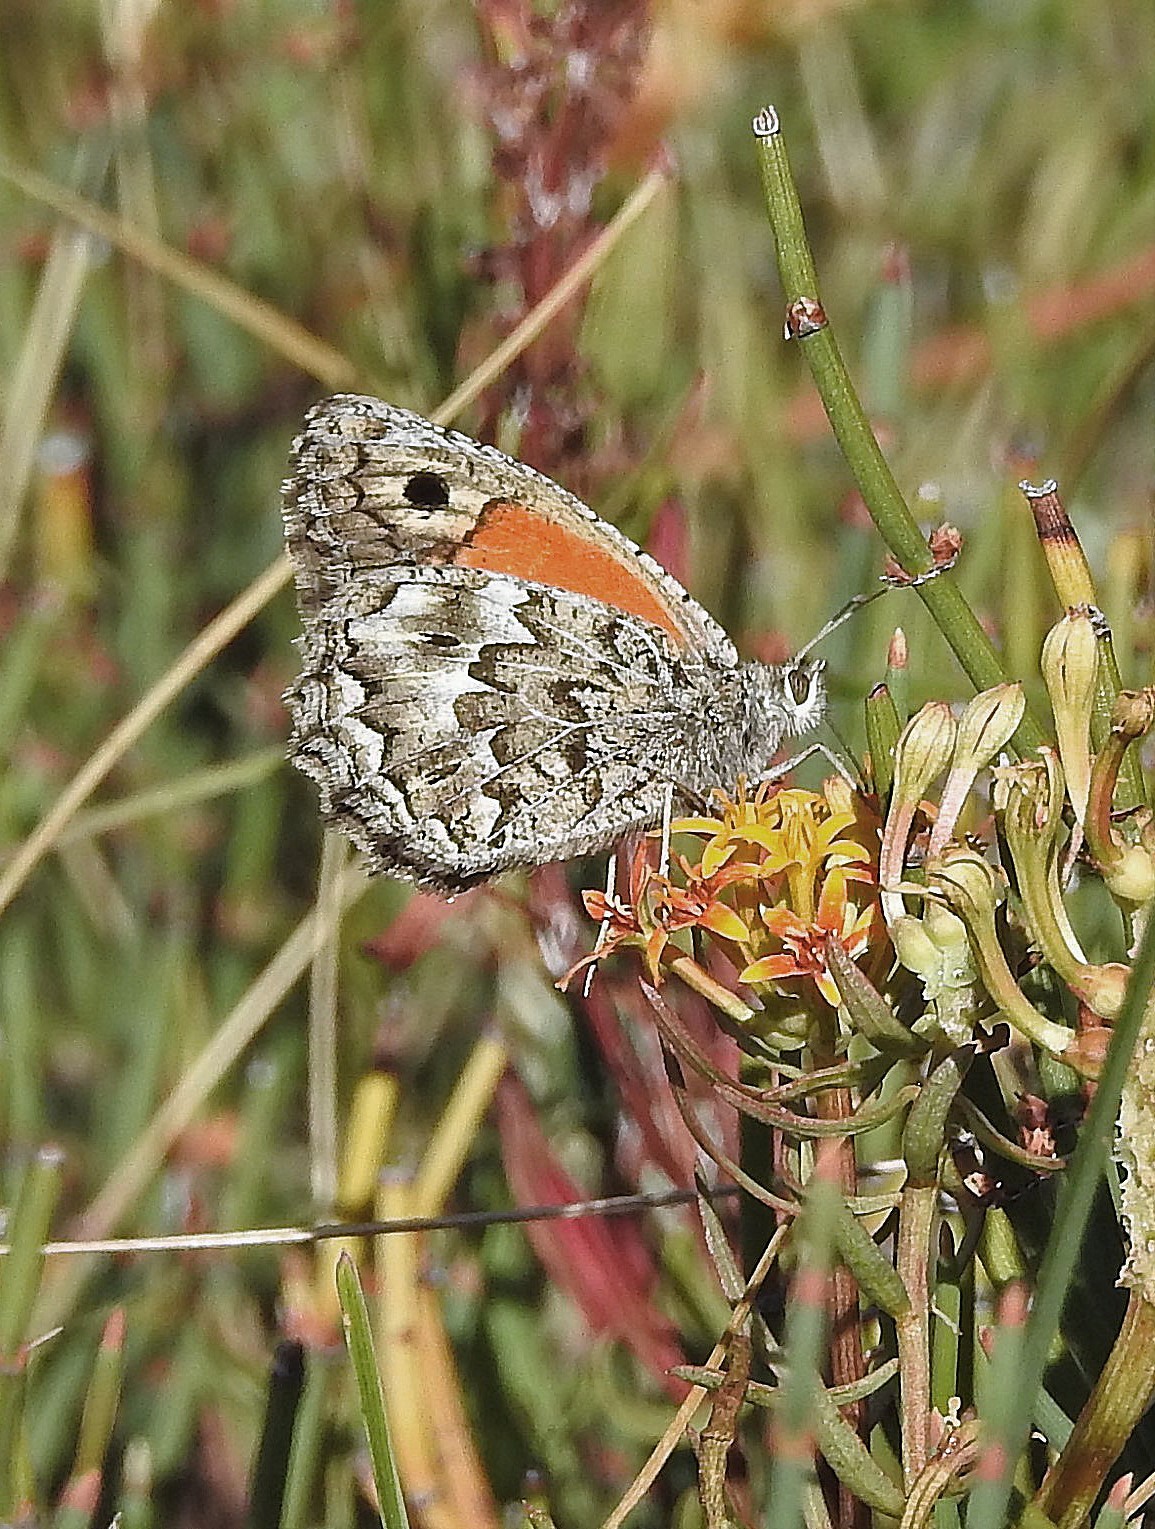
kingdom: Animalia
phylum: Arthropoda
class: Insecta
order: Lepidoptera
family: Nymphalidae
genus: Argyrophorus
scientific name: Argyrophorus
